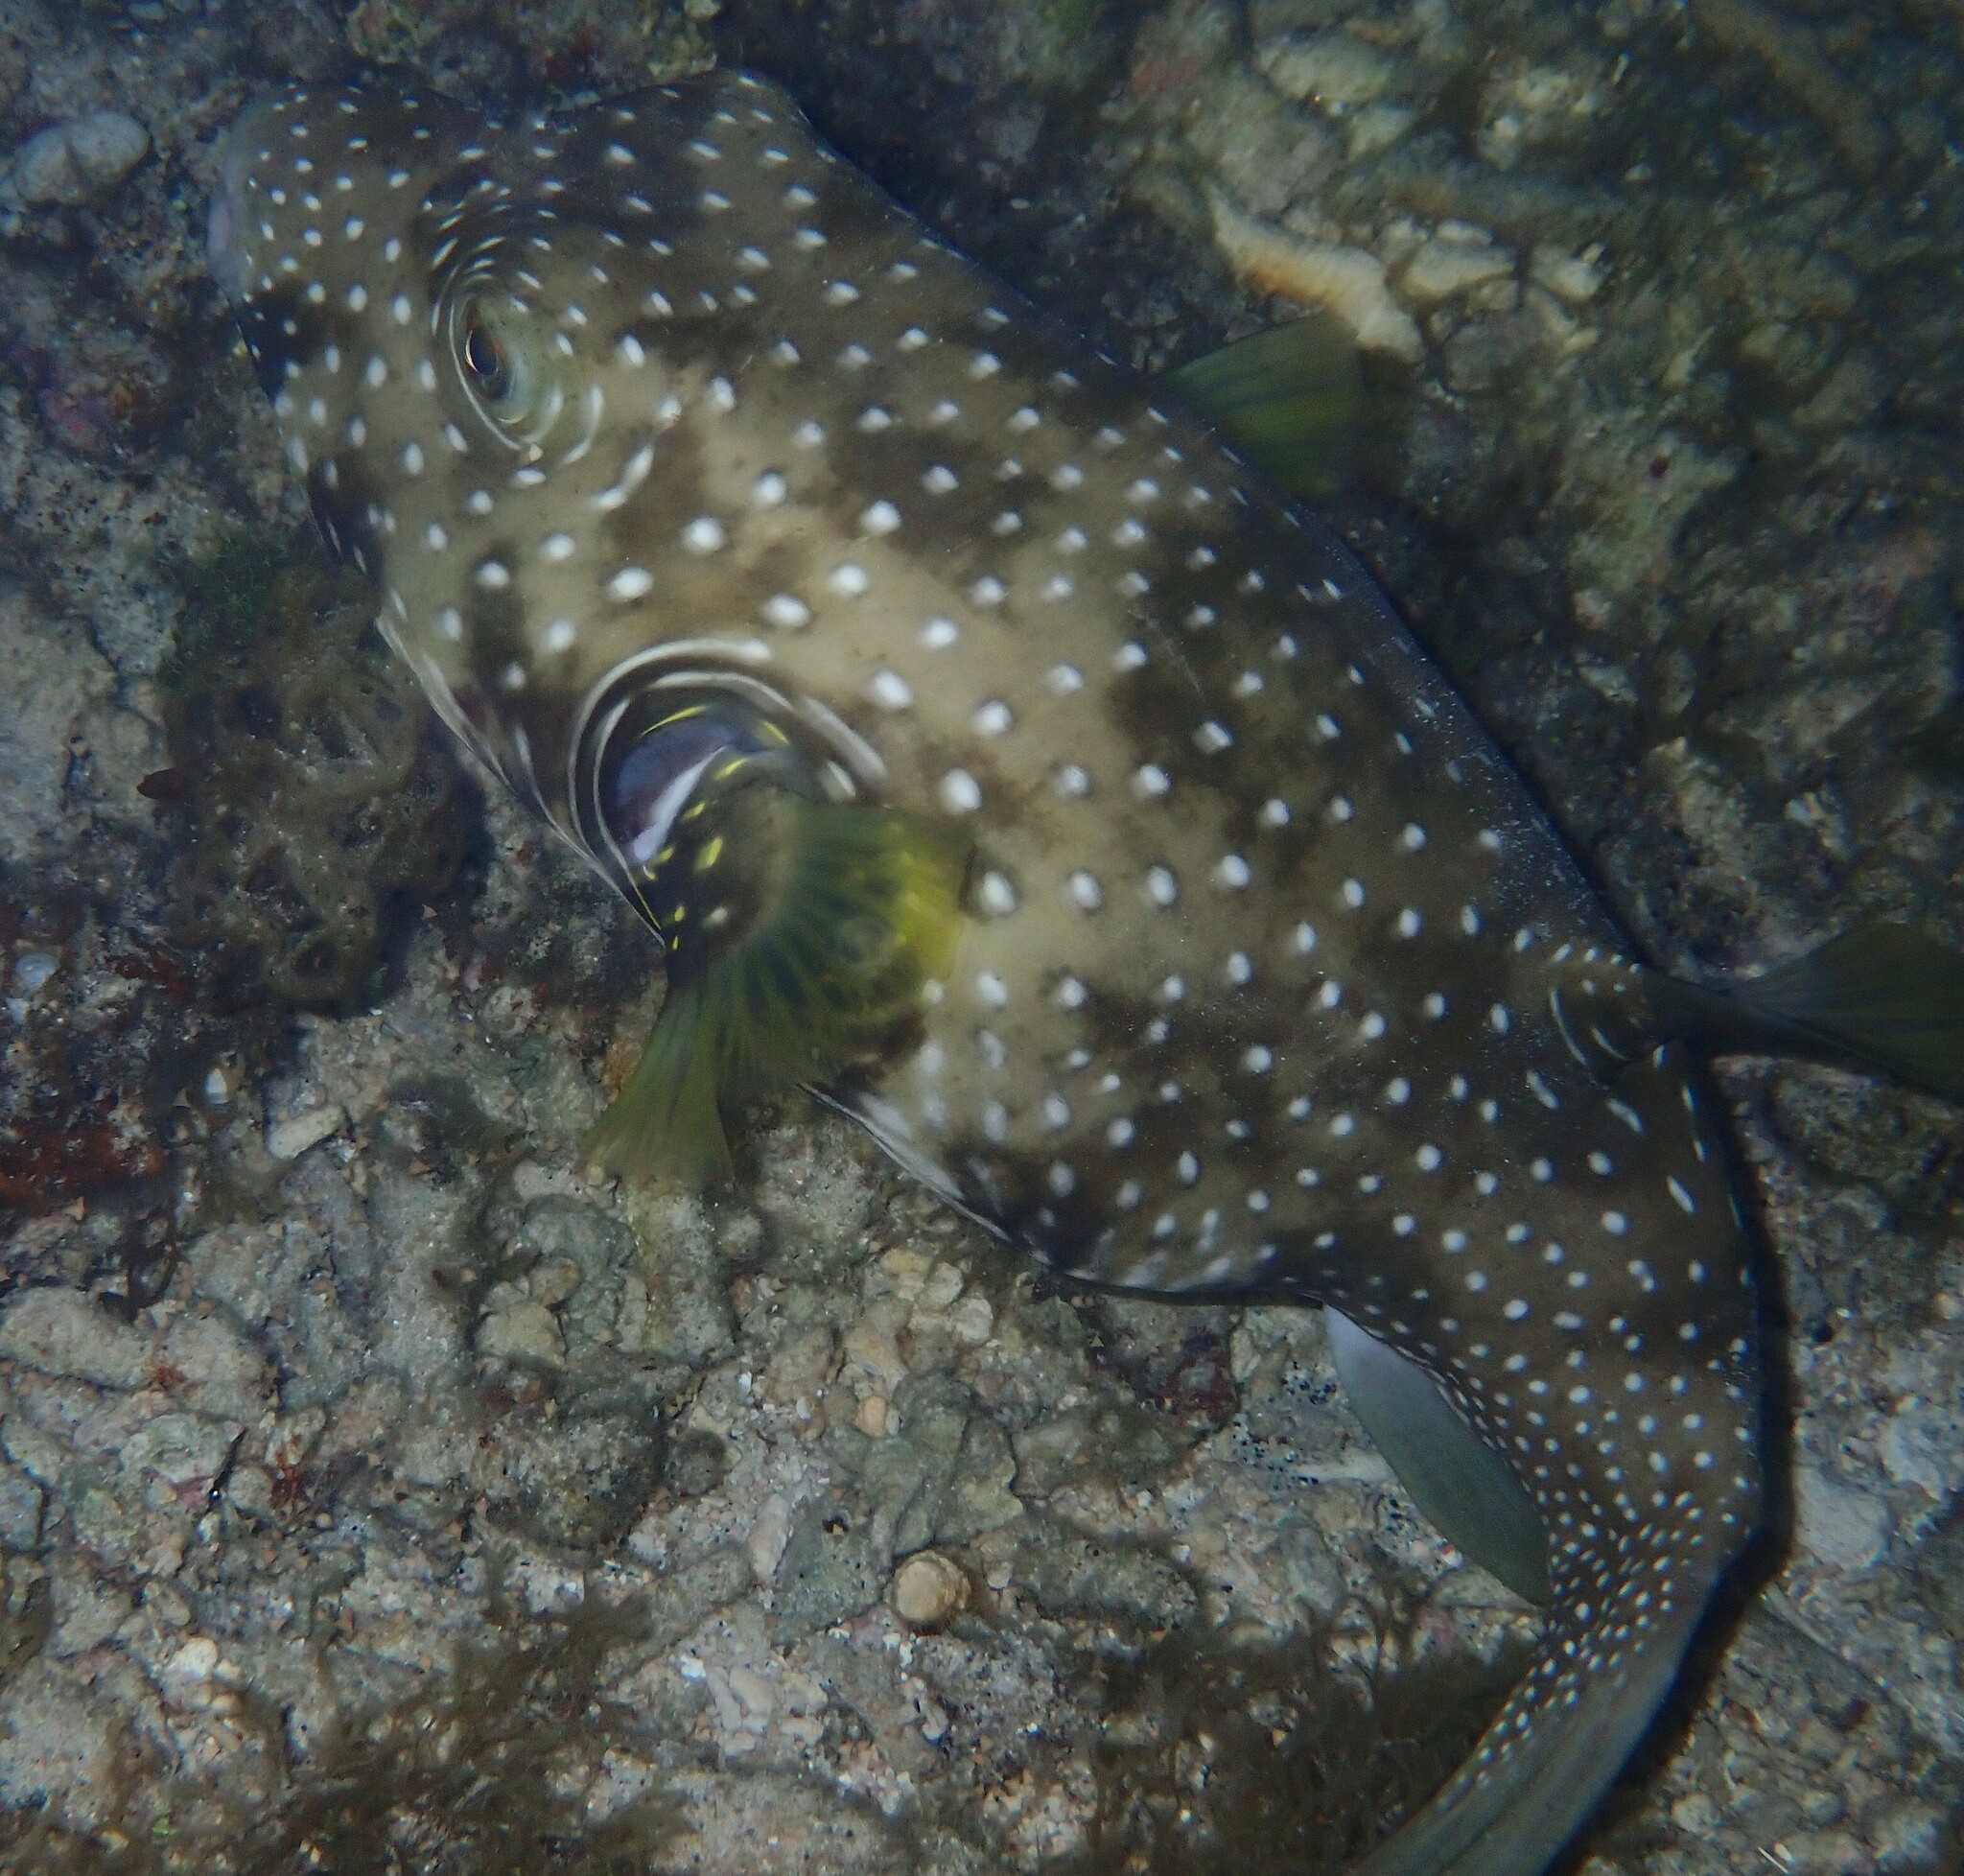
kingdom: Animalia
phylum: Chordata
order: Tetraodontiformes
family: Tetraodontidae
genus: Arothron
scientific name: Arothron hispidus
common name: Stripebelly puffer
